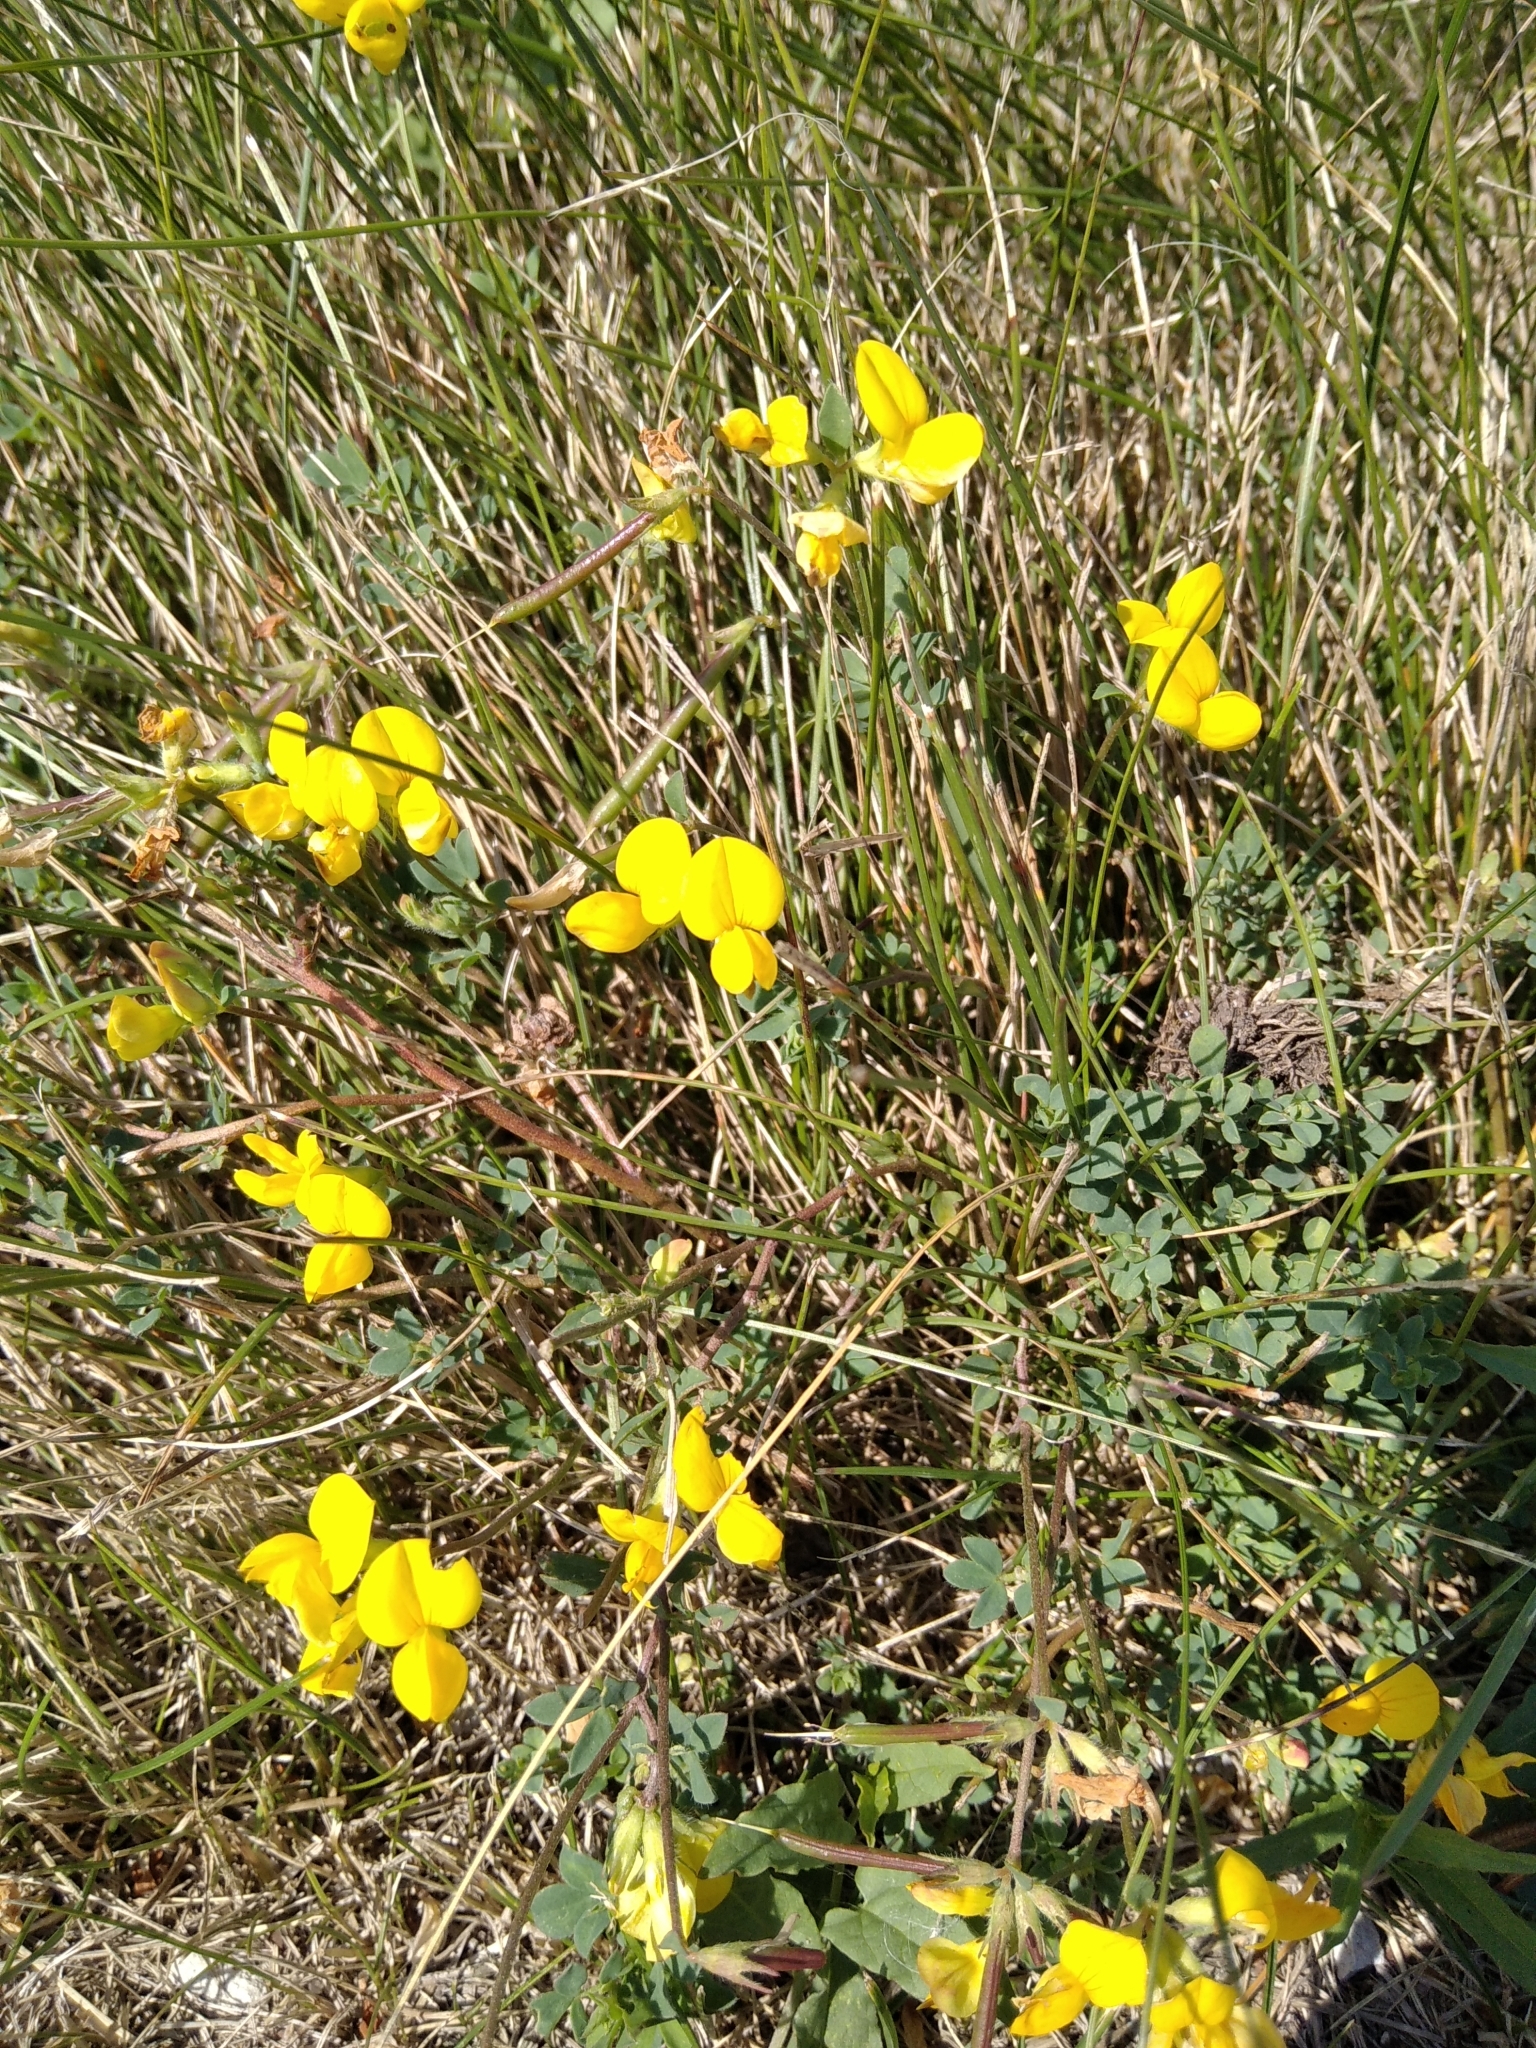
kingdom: Plantae
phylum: Tracheophyta
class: Magnoliopsida
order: Fabales
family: Fabaceae
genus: Lotus
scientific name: Lotus corniculatus
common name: Common bird's-foot-trefoil
